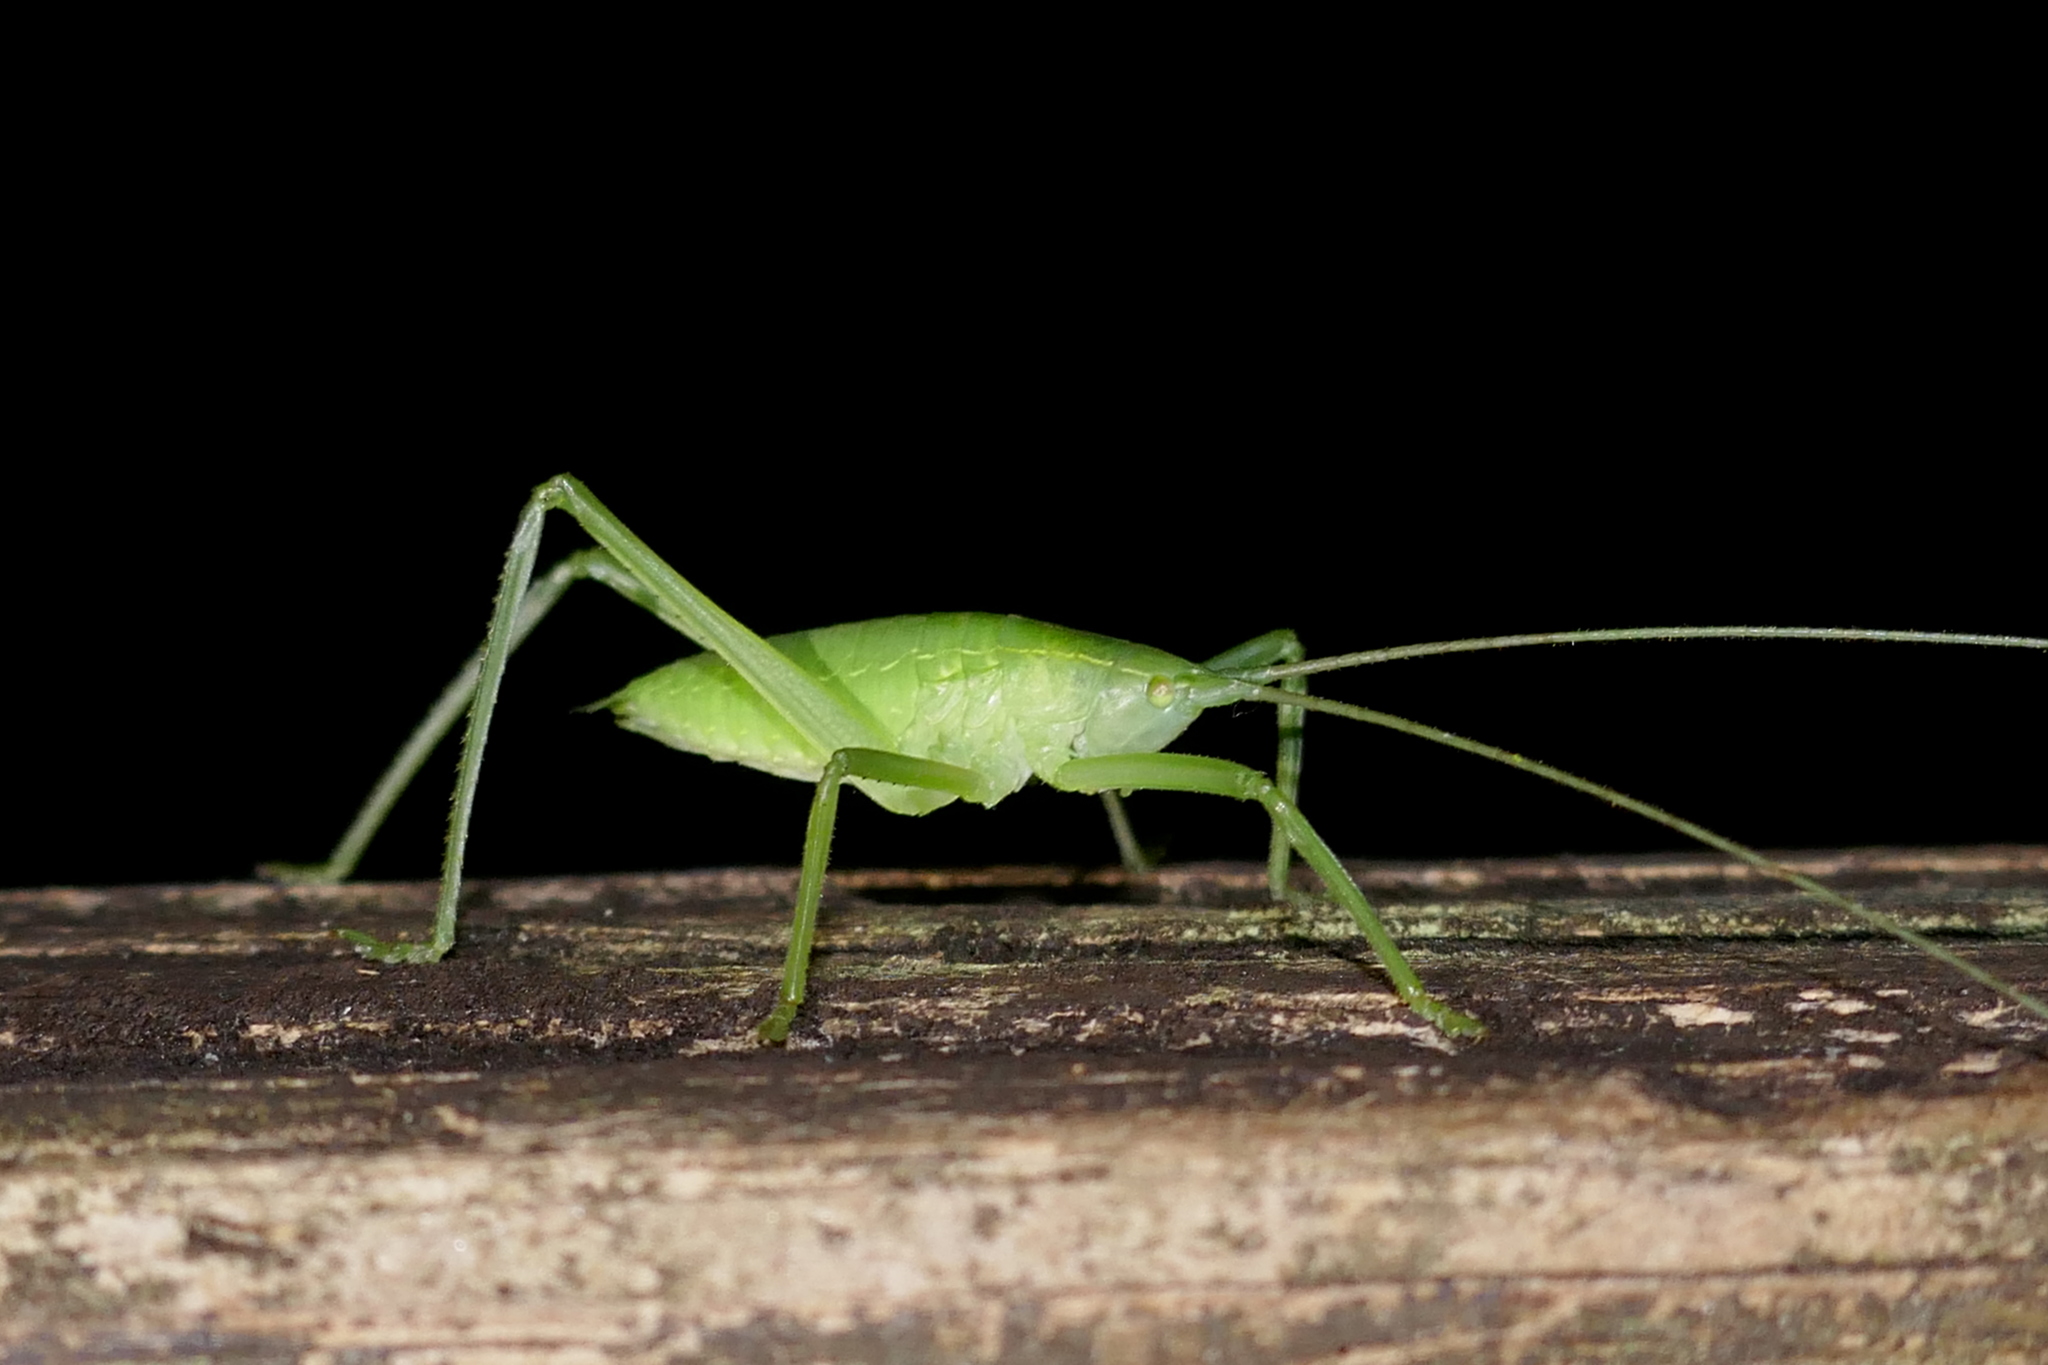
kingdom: Animalia
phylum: Arthropoda
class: Insecta
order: Orthoptera
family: Tettigoniidae
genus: Lea
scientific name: Lea floridensis
